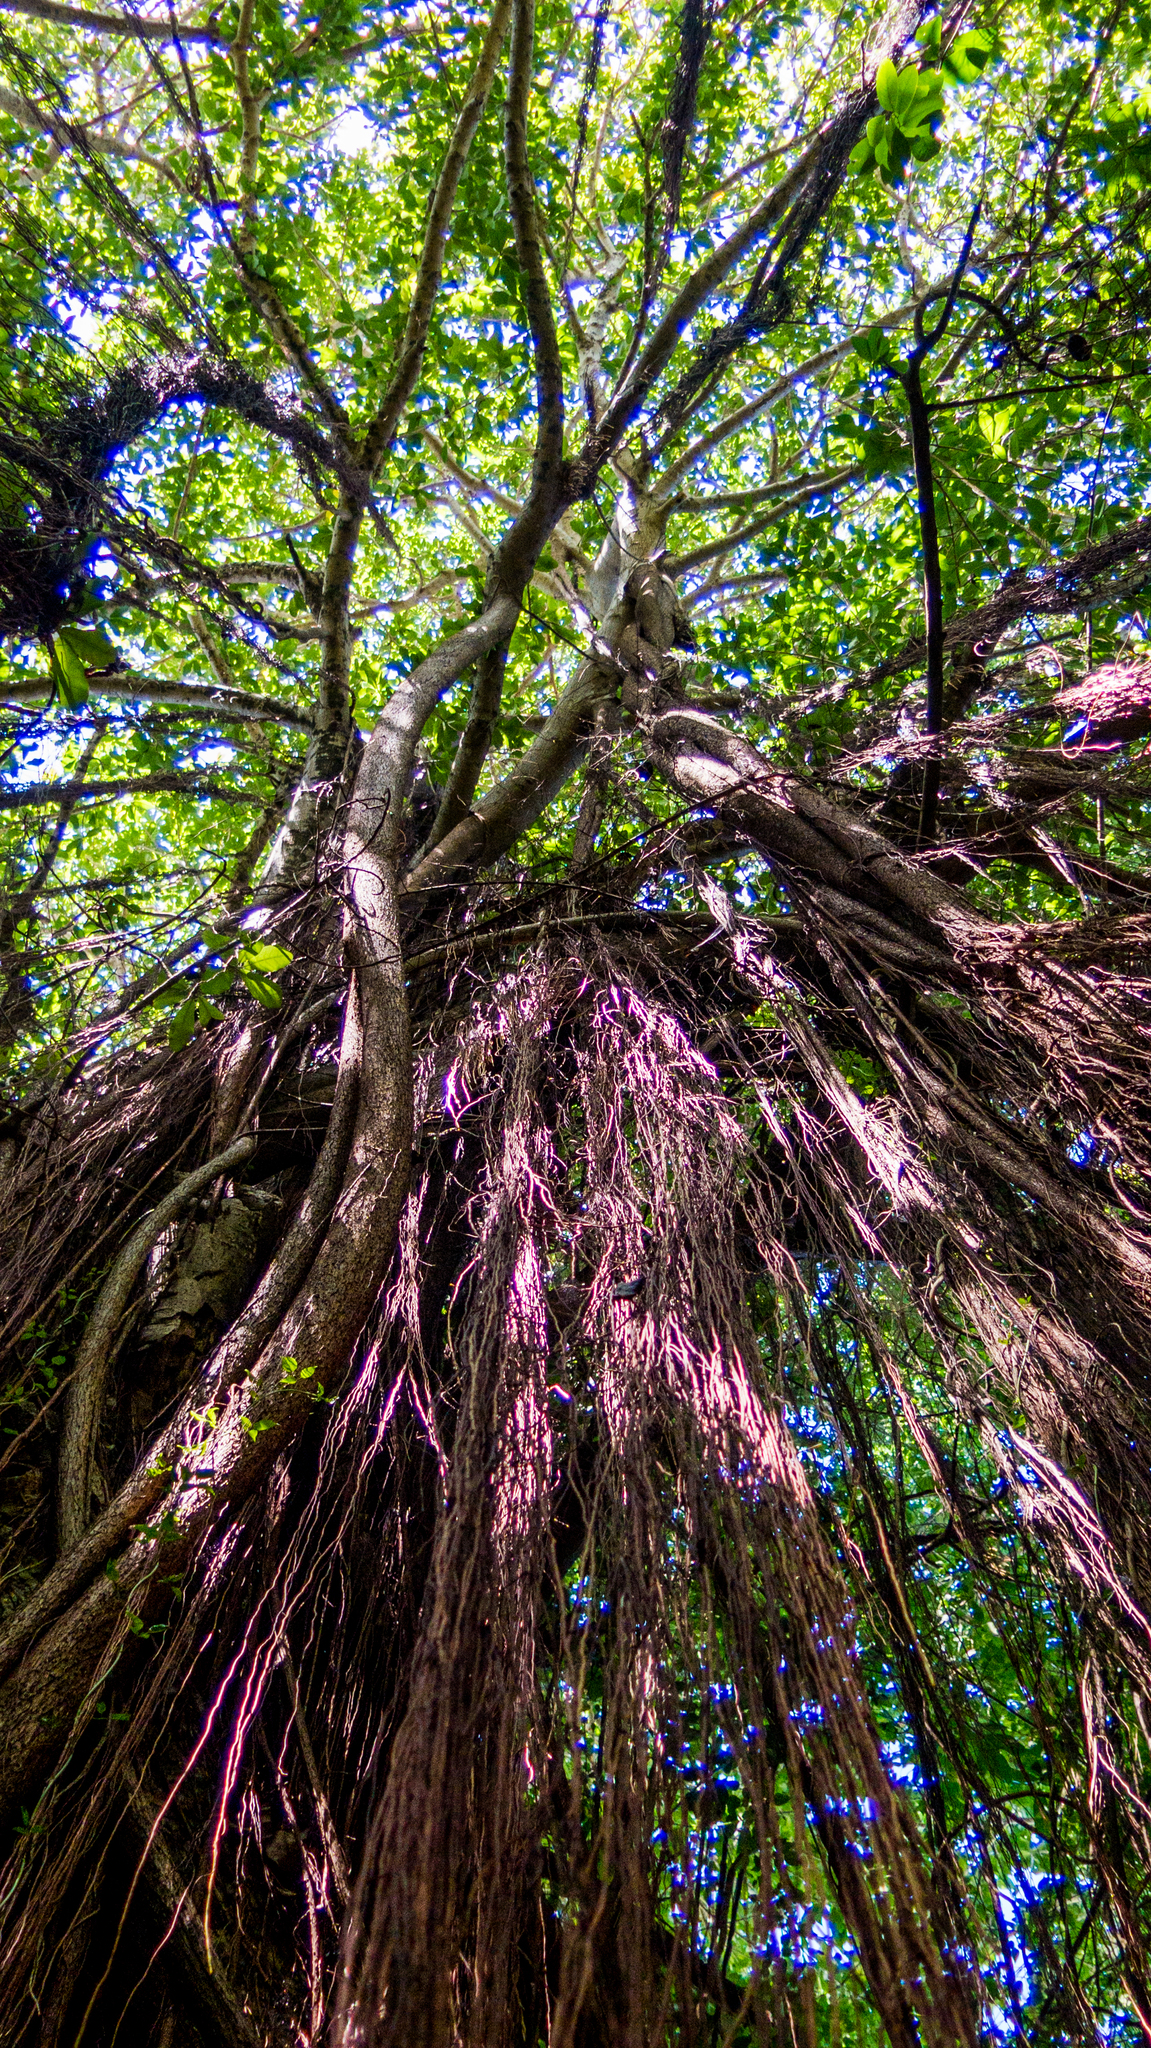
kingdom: Plantae
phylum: Tracheophyta
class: Magnoliopsida
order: Rosales
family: Moraceae
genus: Ficus
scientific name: Ficus cyclophylla
